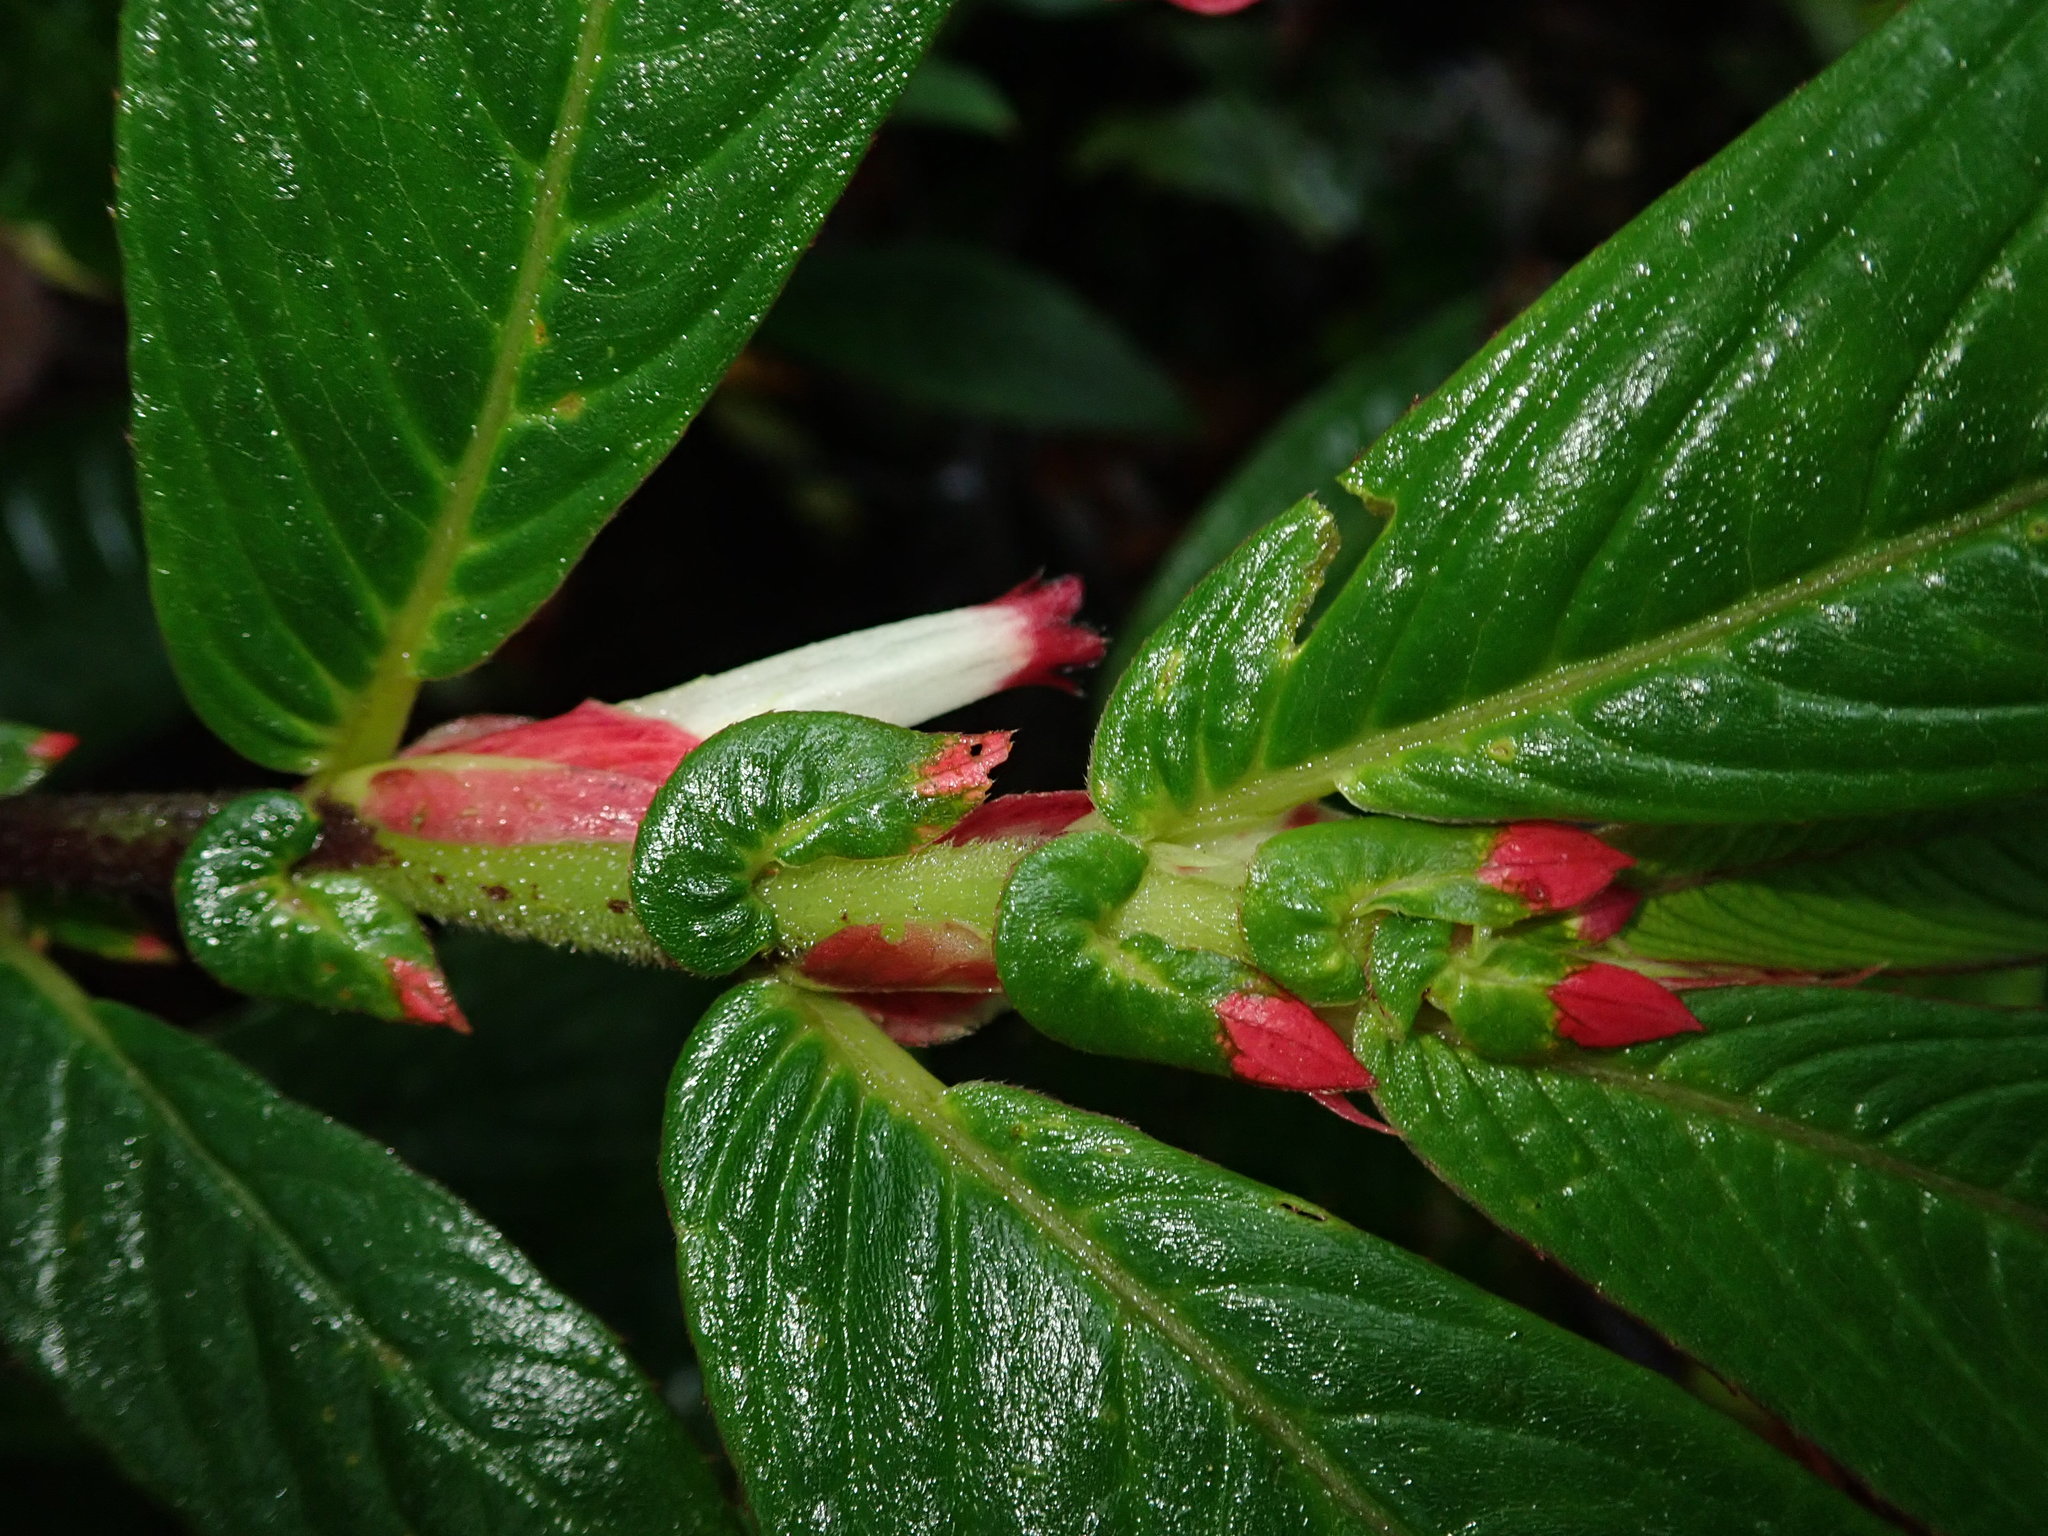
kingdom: Plantae
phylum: Tracheophyta
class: Magnoliopsida
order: Lamiales
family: Gesneriaceae
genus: Columnea
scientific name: Columnea albovinosa
